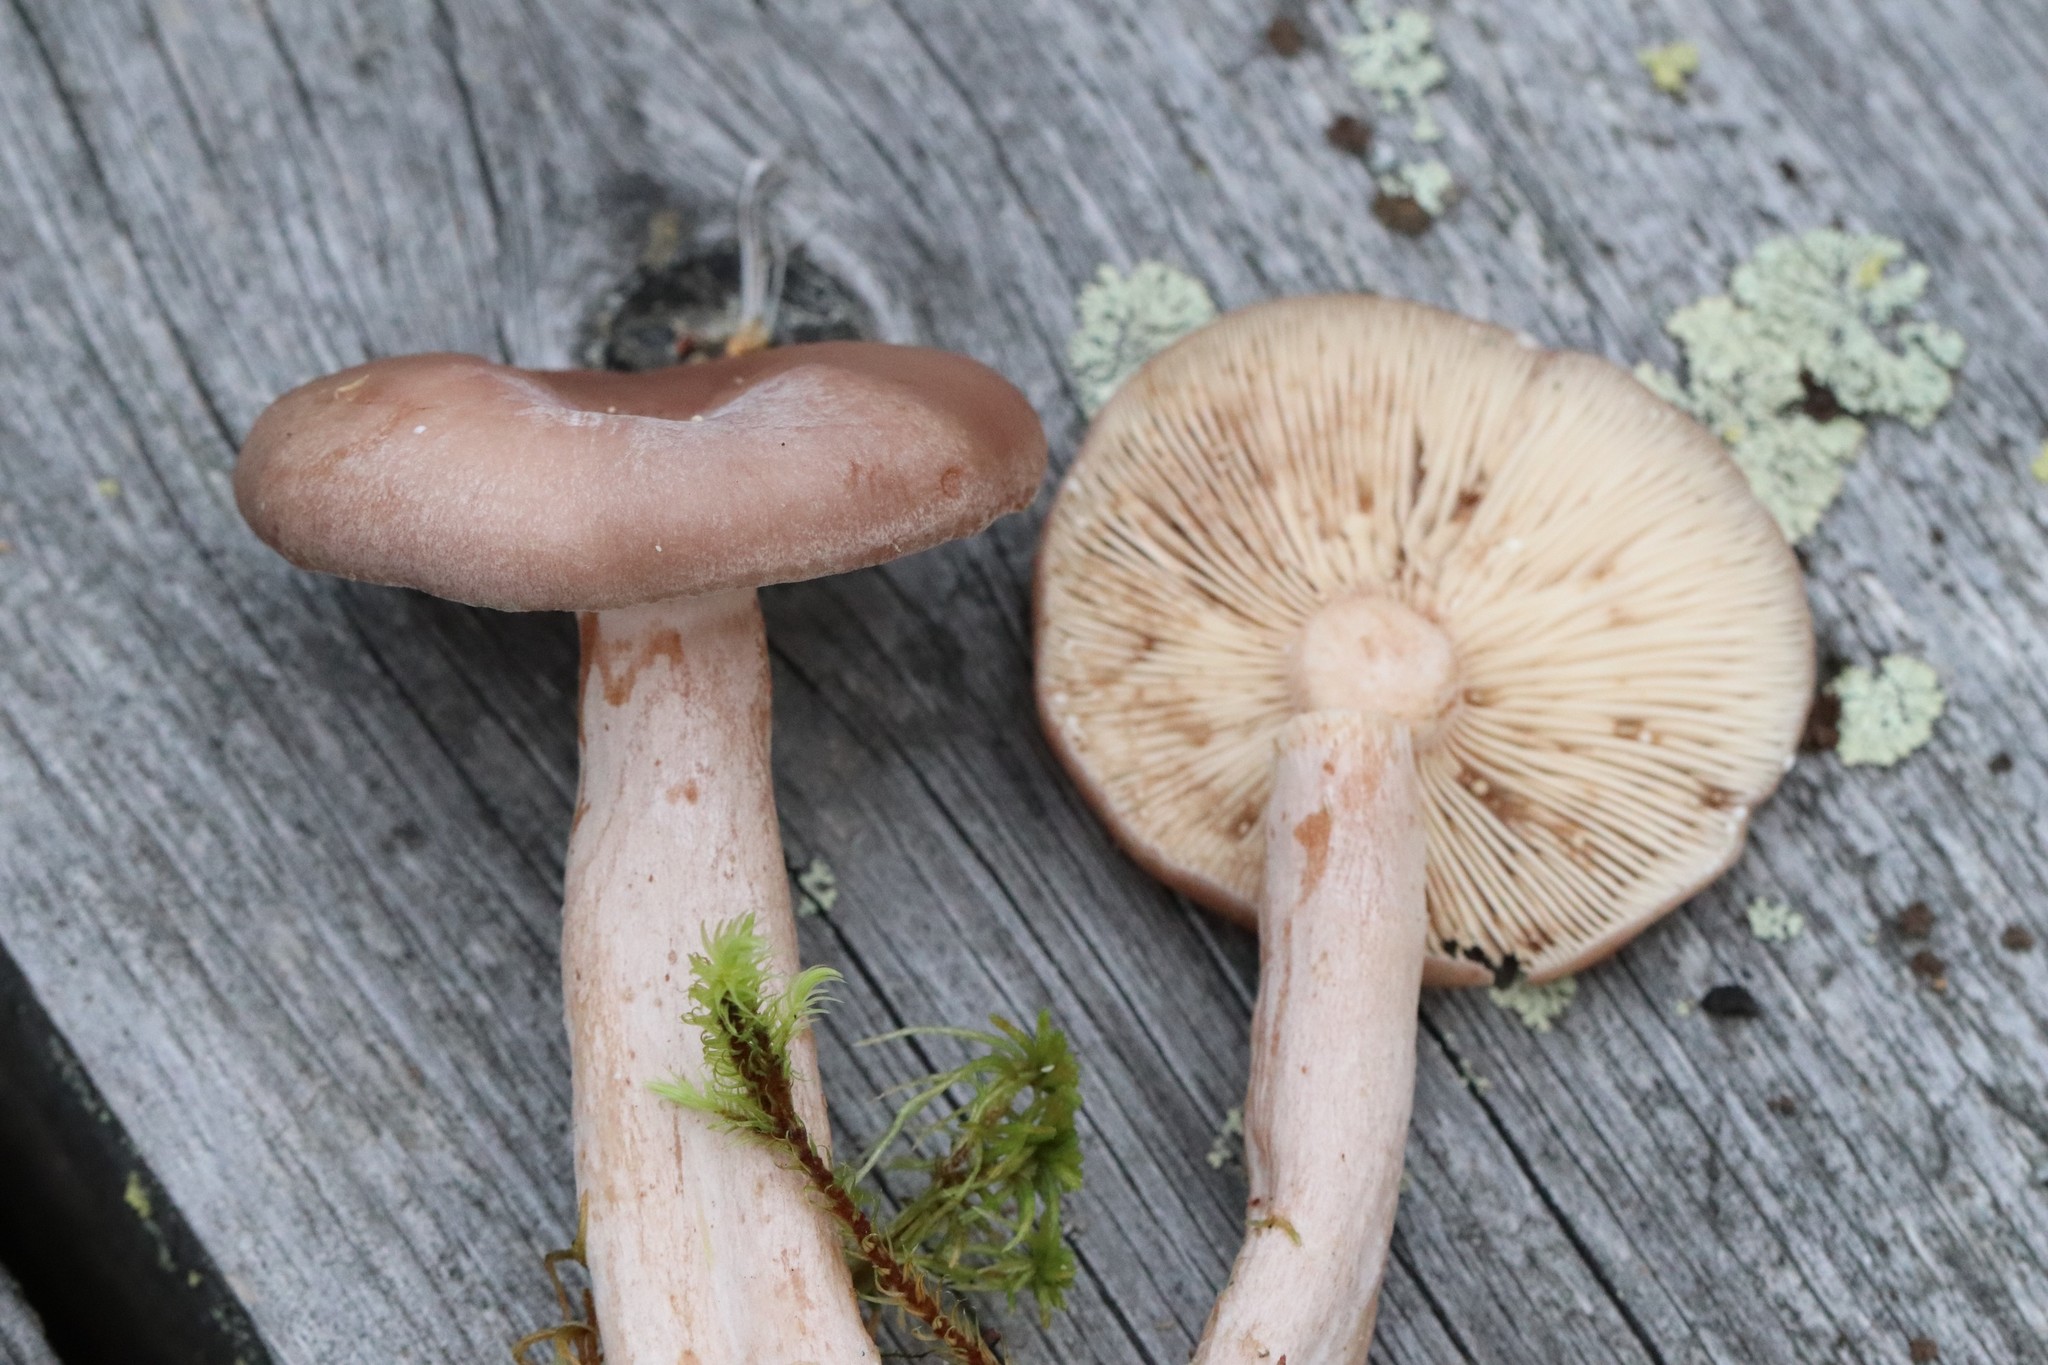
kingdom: Fungi
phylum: Basidiomycota
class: Agaricomycetes
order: Russulales
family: Russulaceae
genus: Lactarius
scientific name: Lactarius vietus
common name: Grey milk-cap
